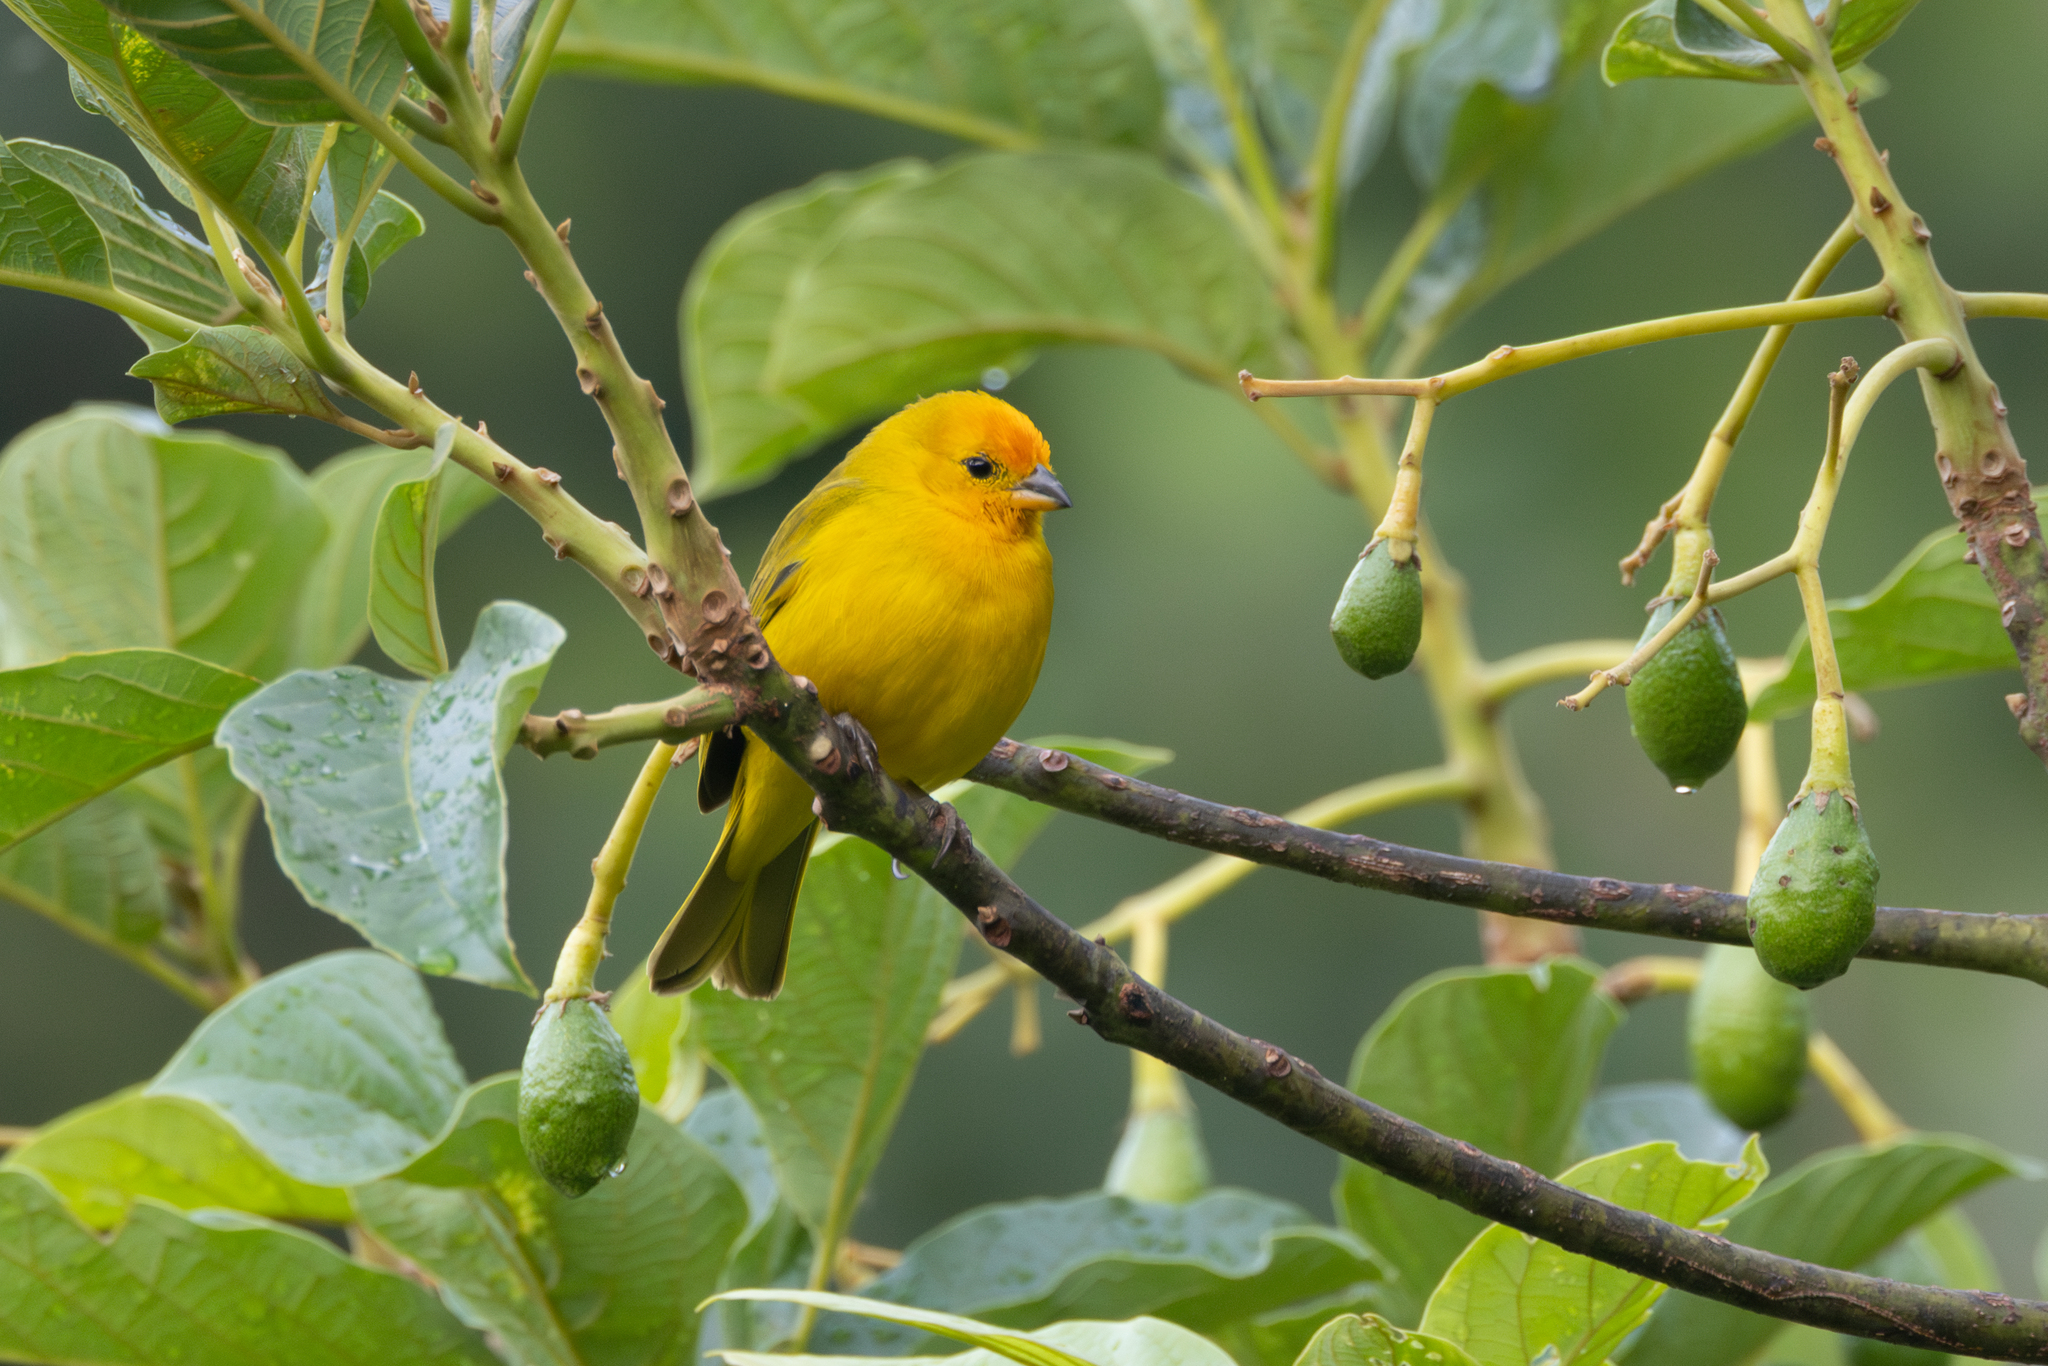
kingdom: Animalia
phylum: Chordata
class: Aves
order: Passeriformes
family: Thraupidae
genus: Sicalis
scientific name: Sicalis flaveola
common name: Saffron finch
